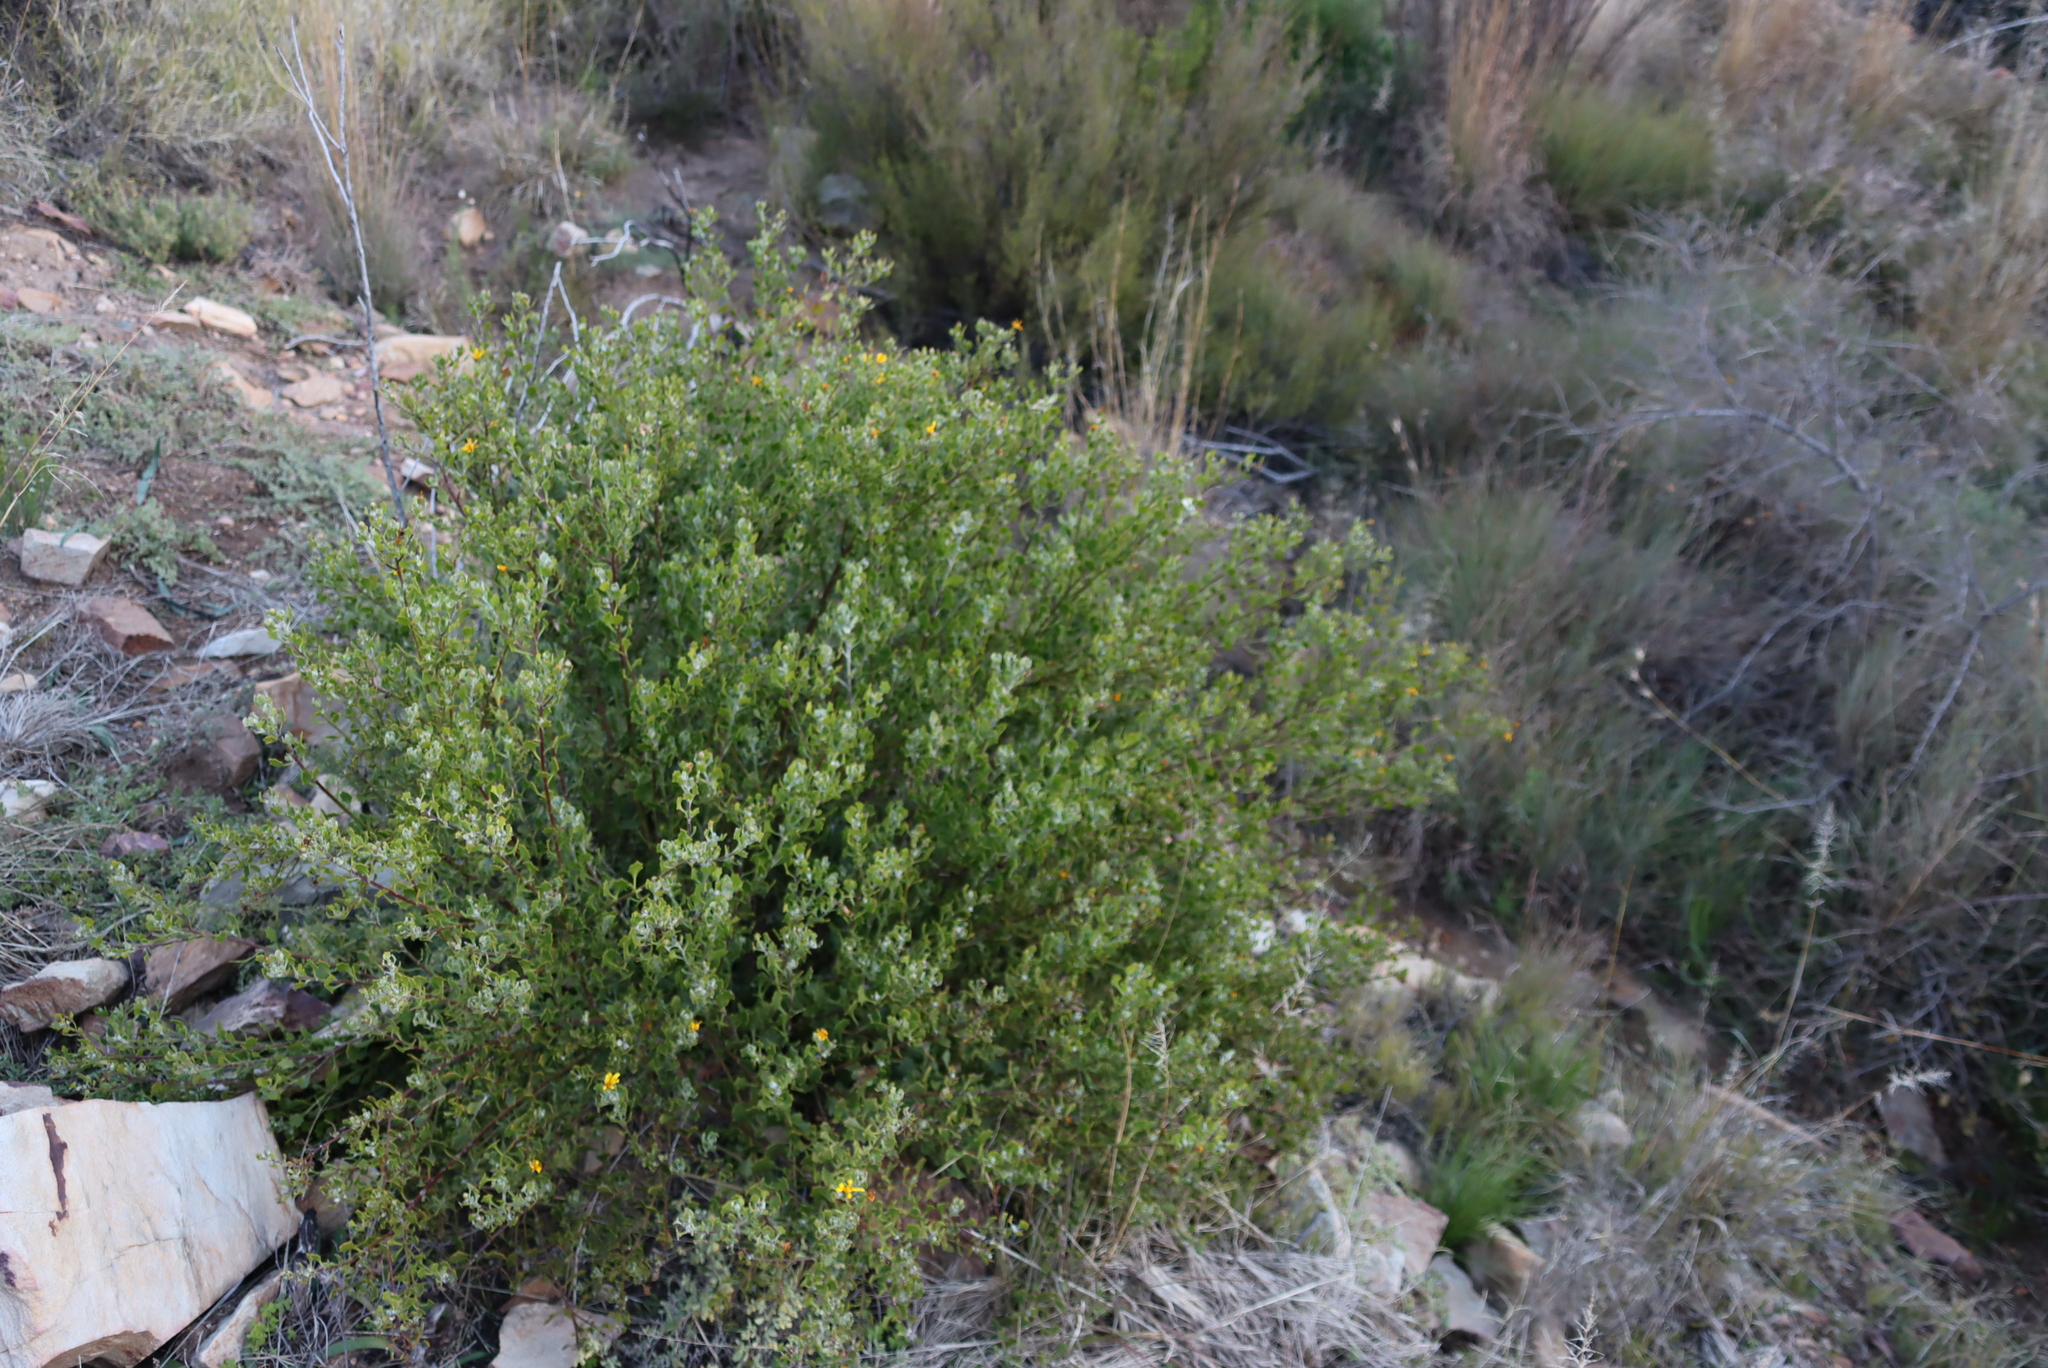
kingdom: Plantae
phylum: Tracheophyta
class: Magnoliopsida
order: Asterales
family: Asteraceae
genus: Osteospermum
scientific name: Osteospermum moniliferum
